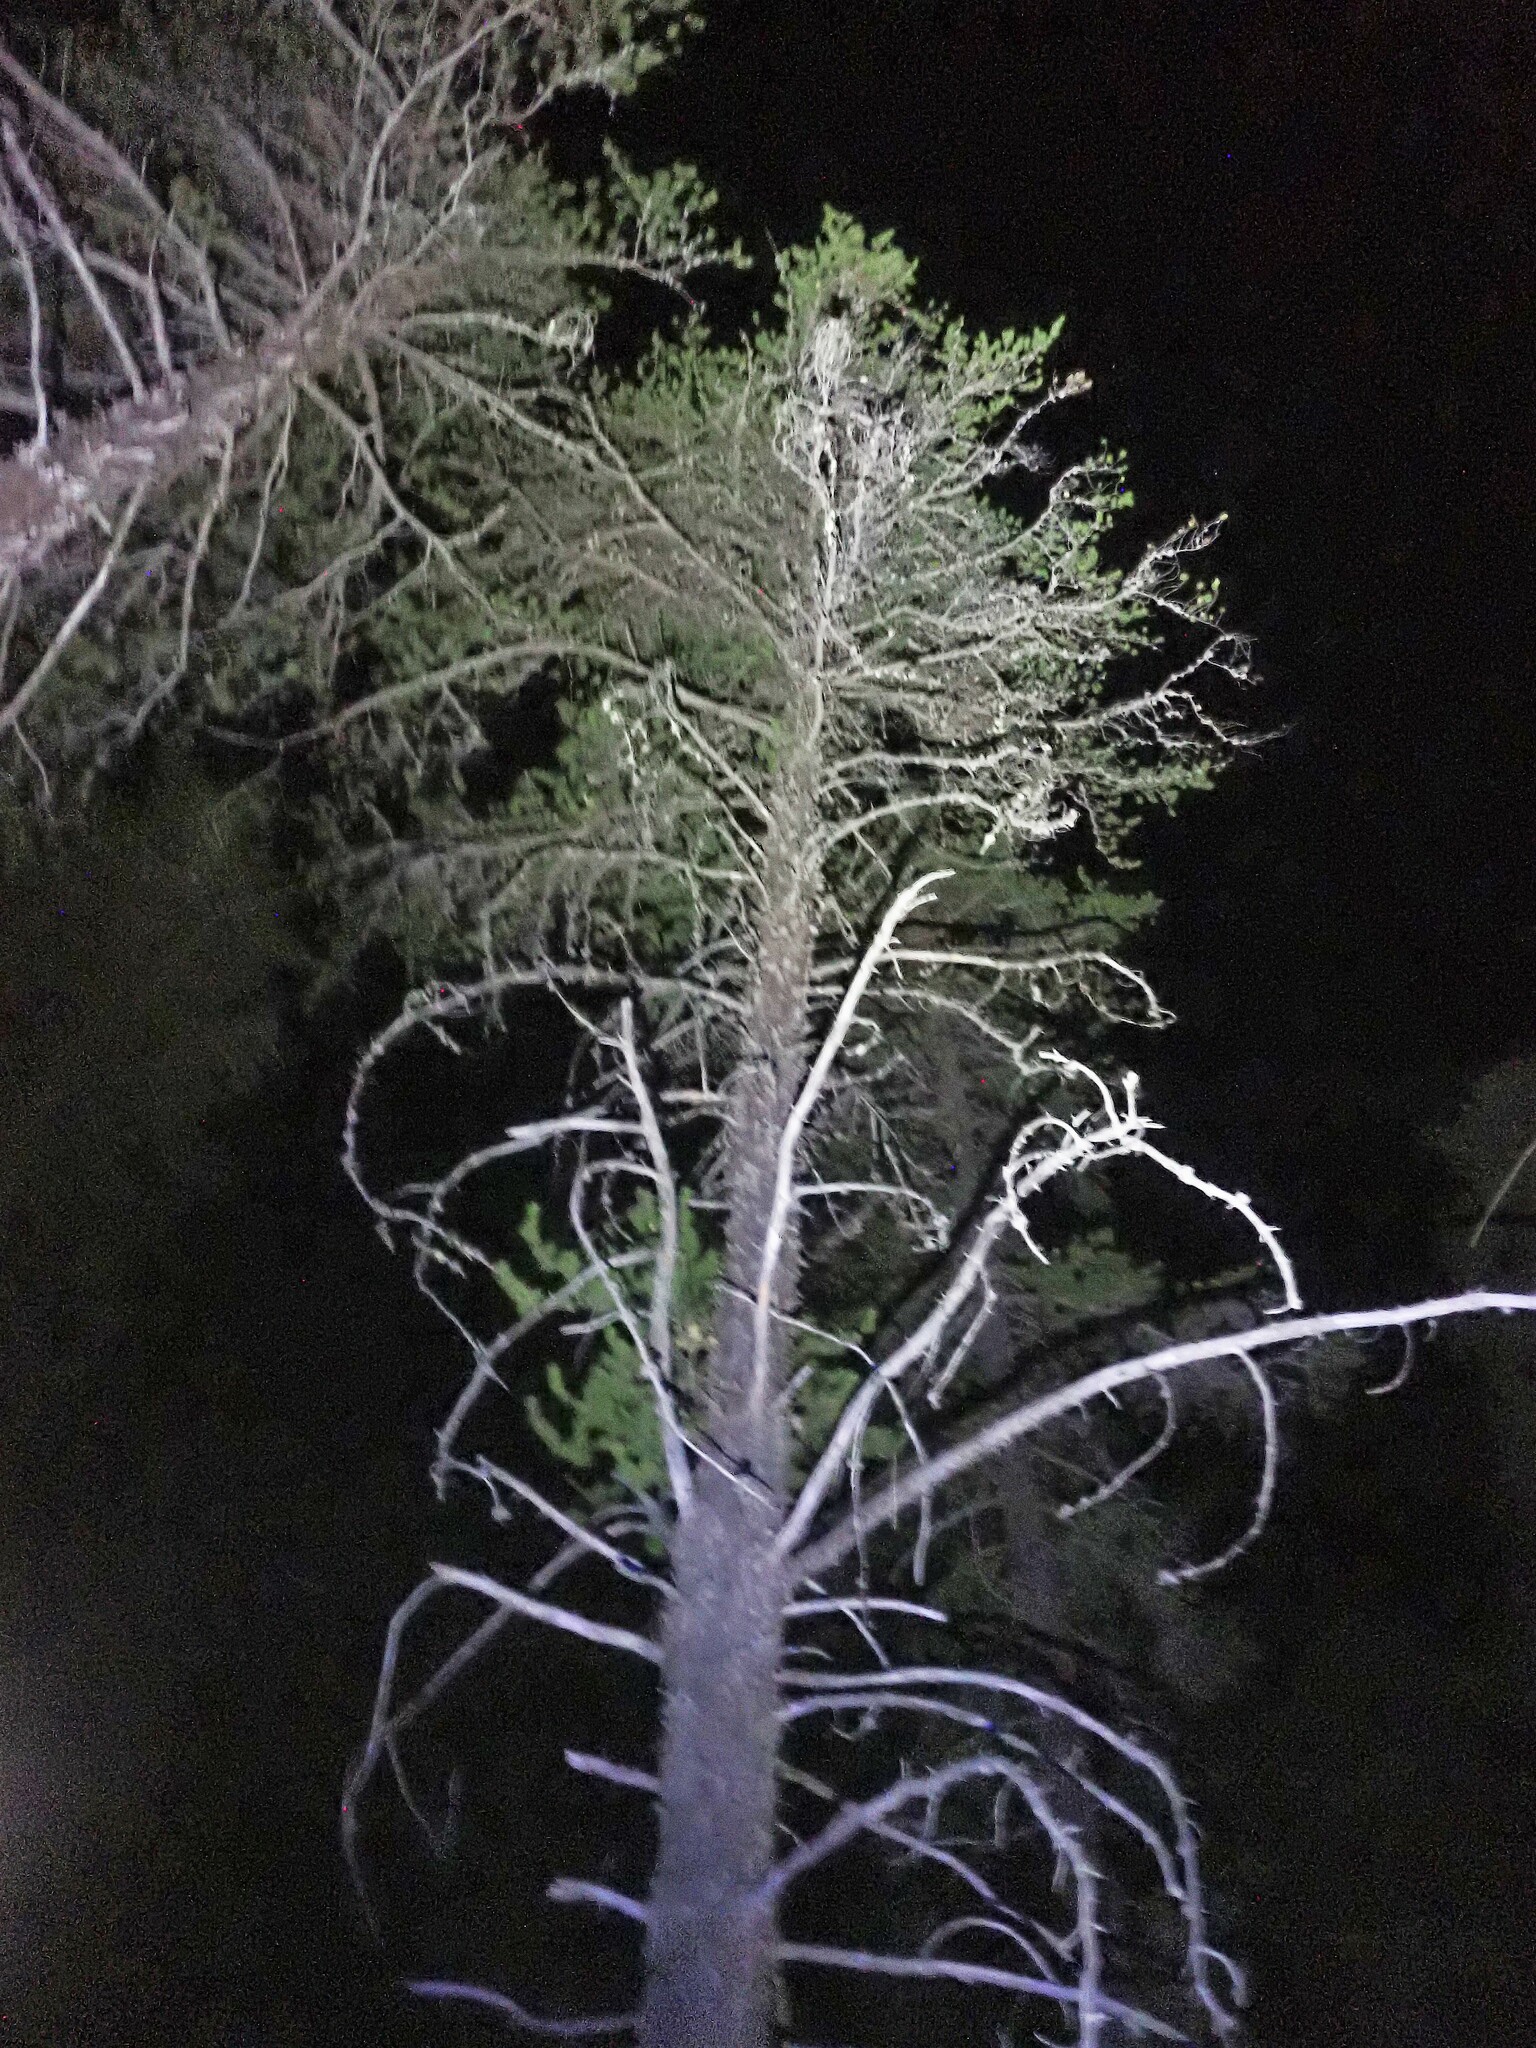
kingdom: Plantae
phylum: Tracheophyta
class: Pinopsida
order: Pinales
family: Pinaceae
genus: Pinus
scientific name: Pinus banksiana
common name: Jack pine
